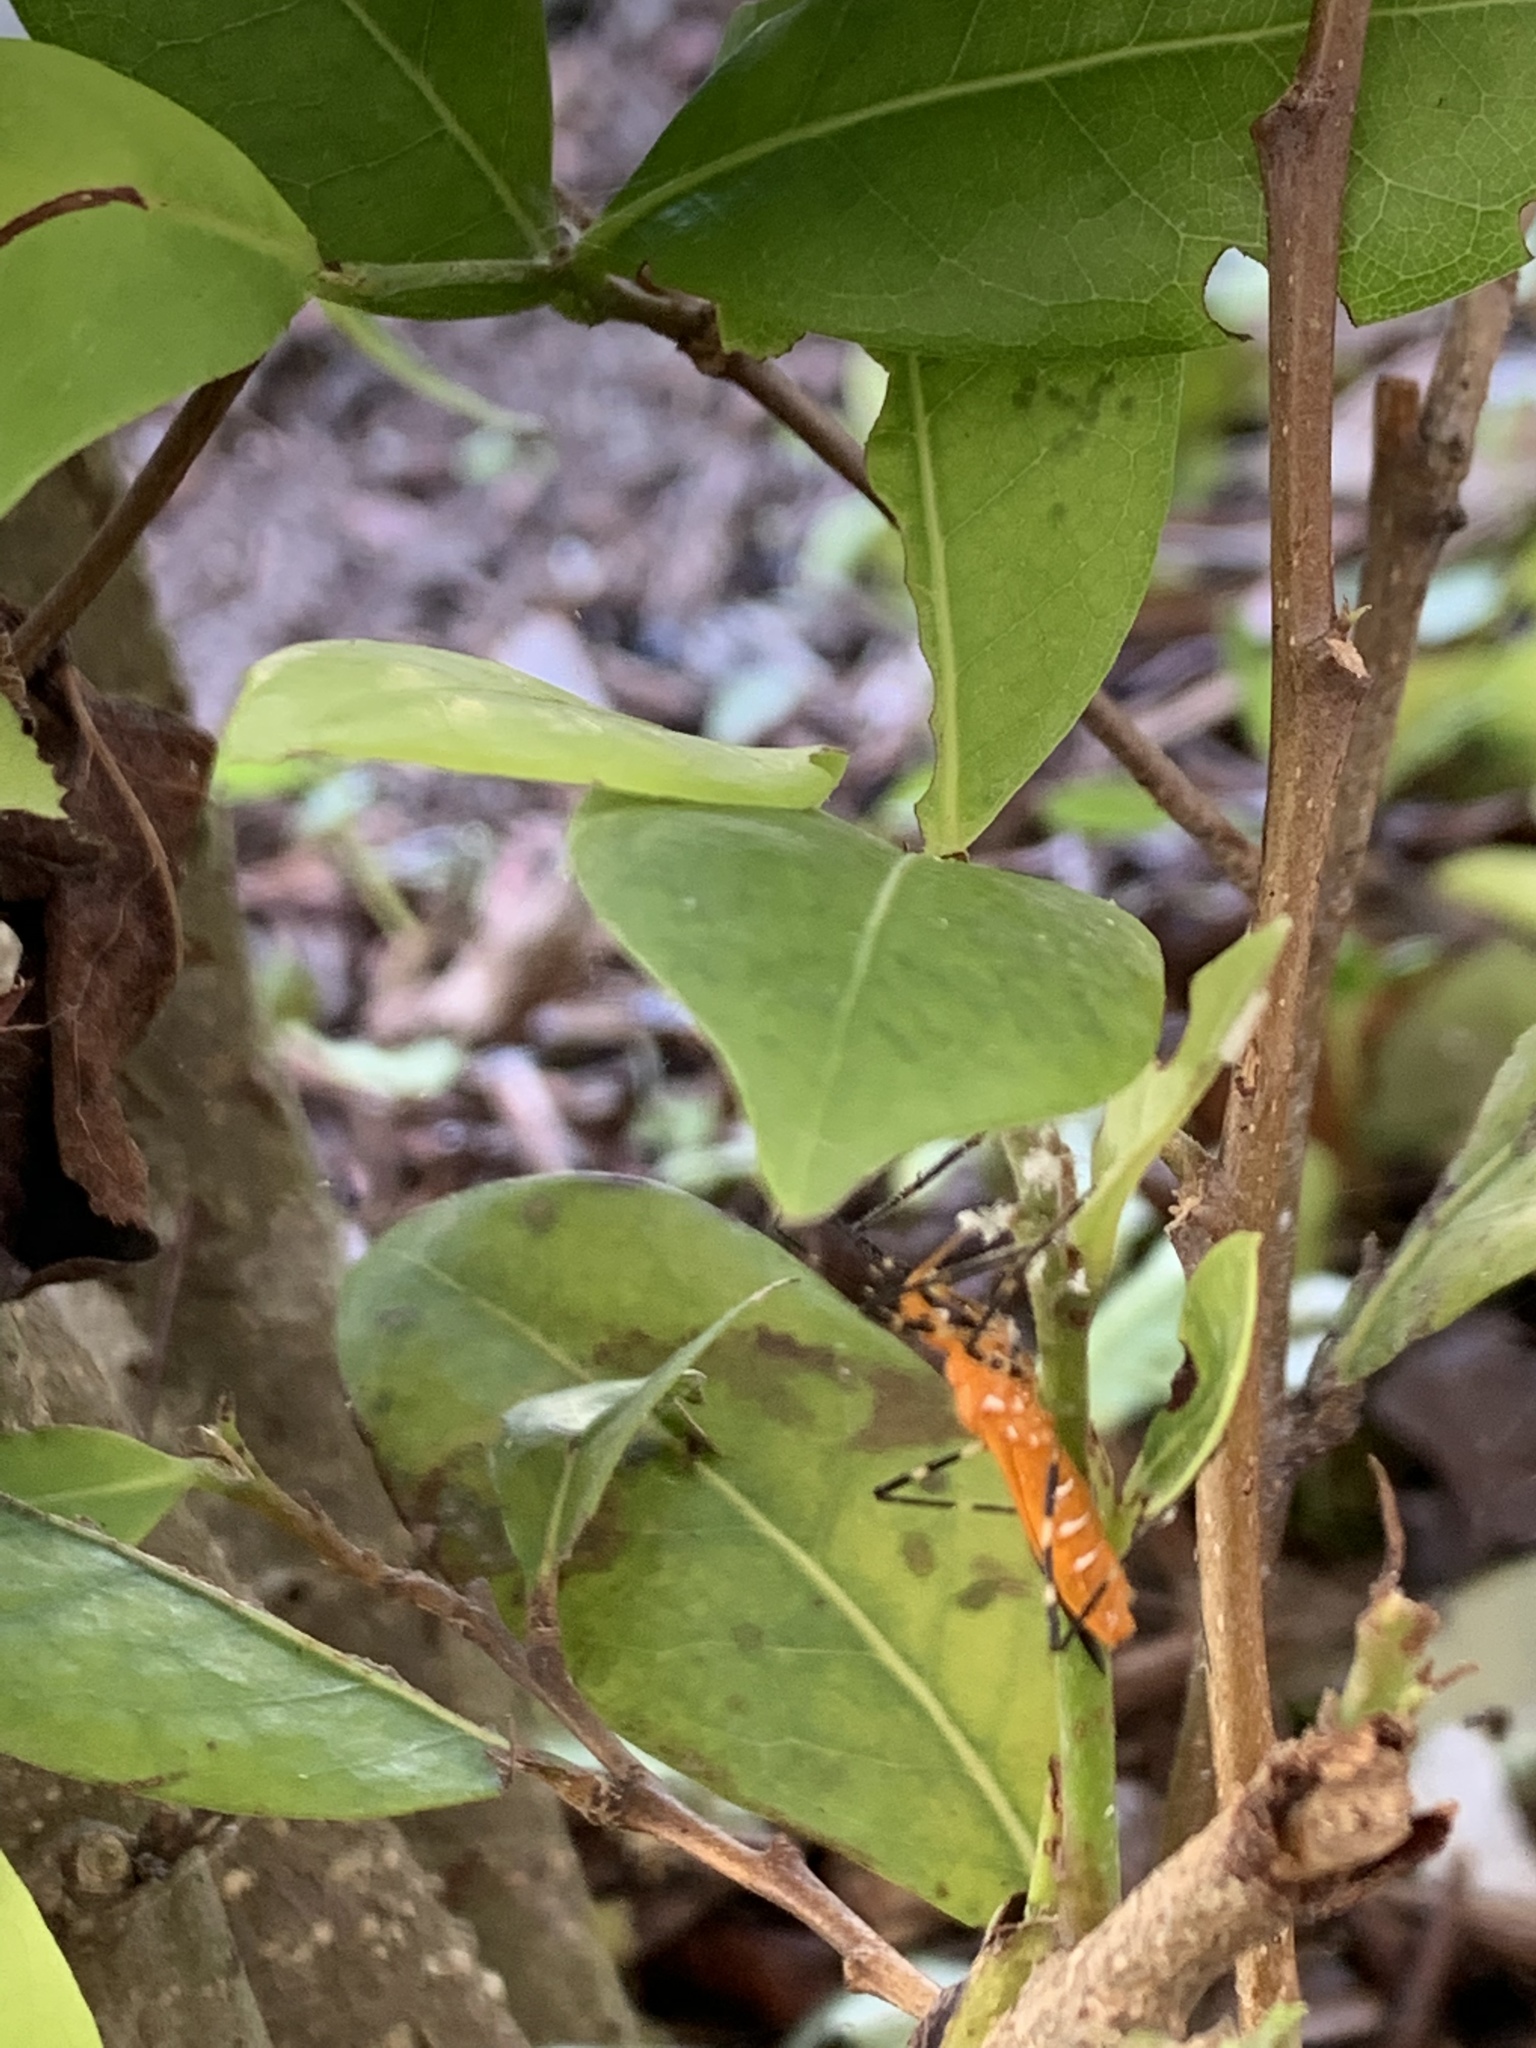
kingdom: Animalia
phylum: Arthropoda
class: Insecta
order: Hemiptera
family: Reduviidae
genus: Zelus
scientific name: Zelus longipes
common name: Milkweed assassin bug
